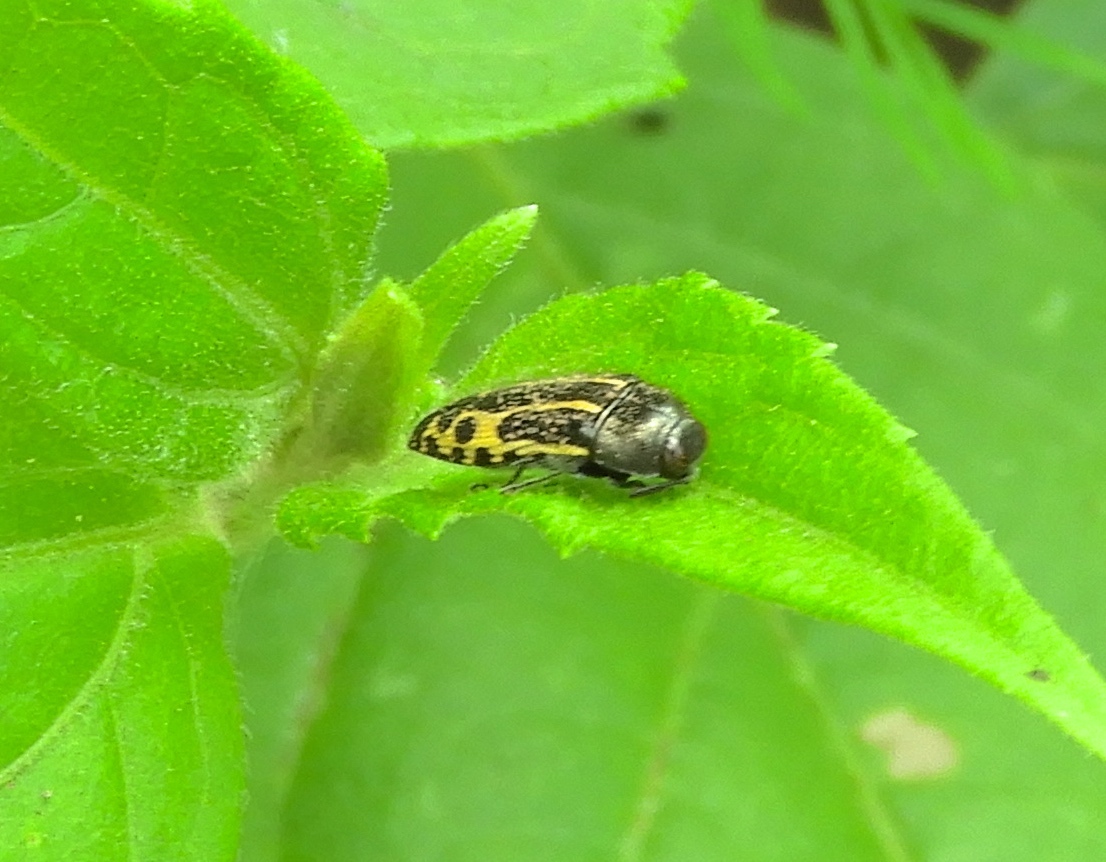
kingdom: Animalia
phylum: Arthropoda
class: Insecta
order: Coleoptera
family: Buprestidae
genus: Acmaeodera
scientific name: Acmaeodera scalaris
